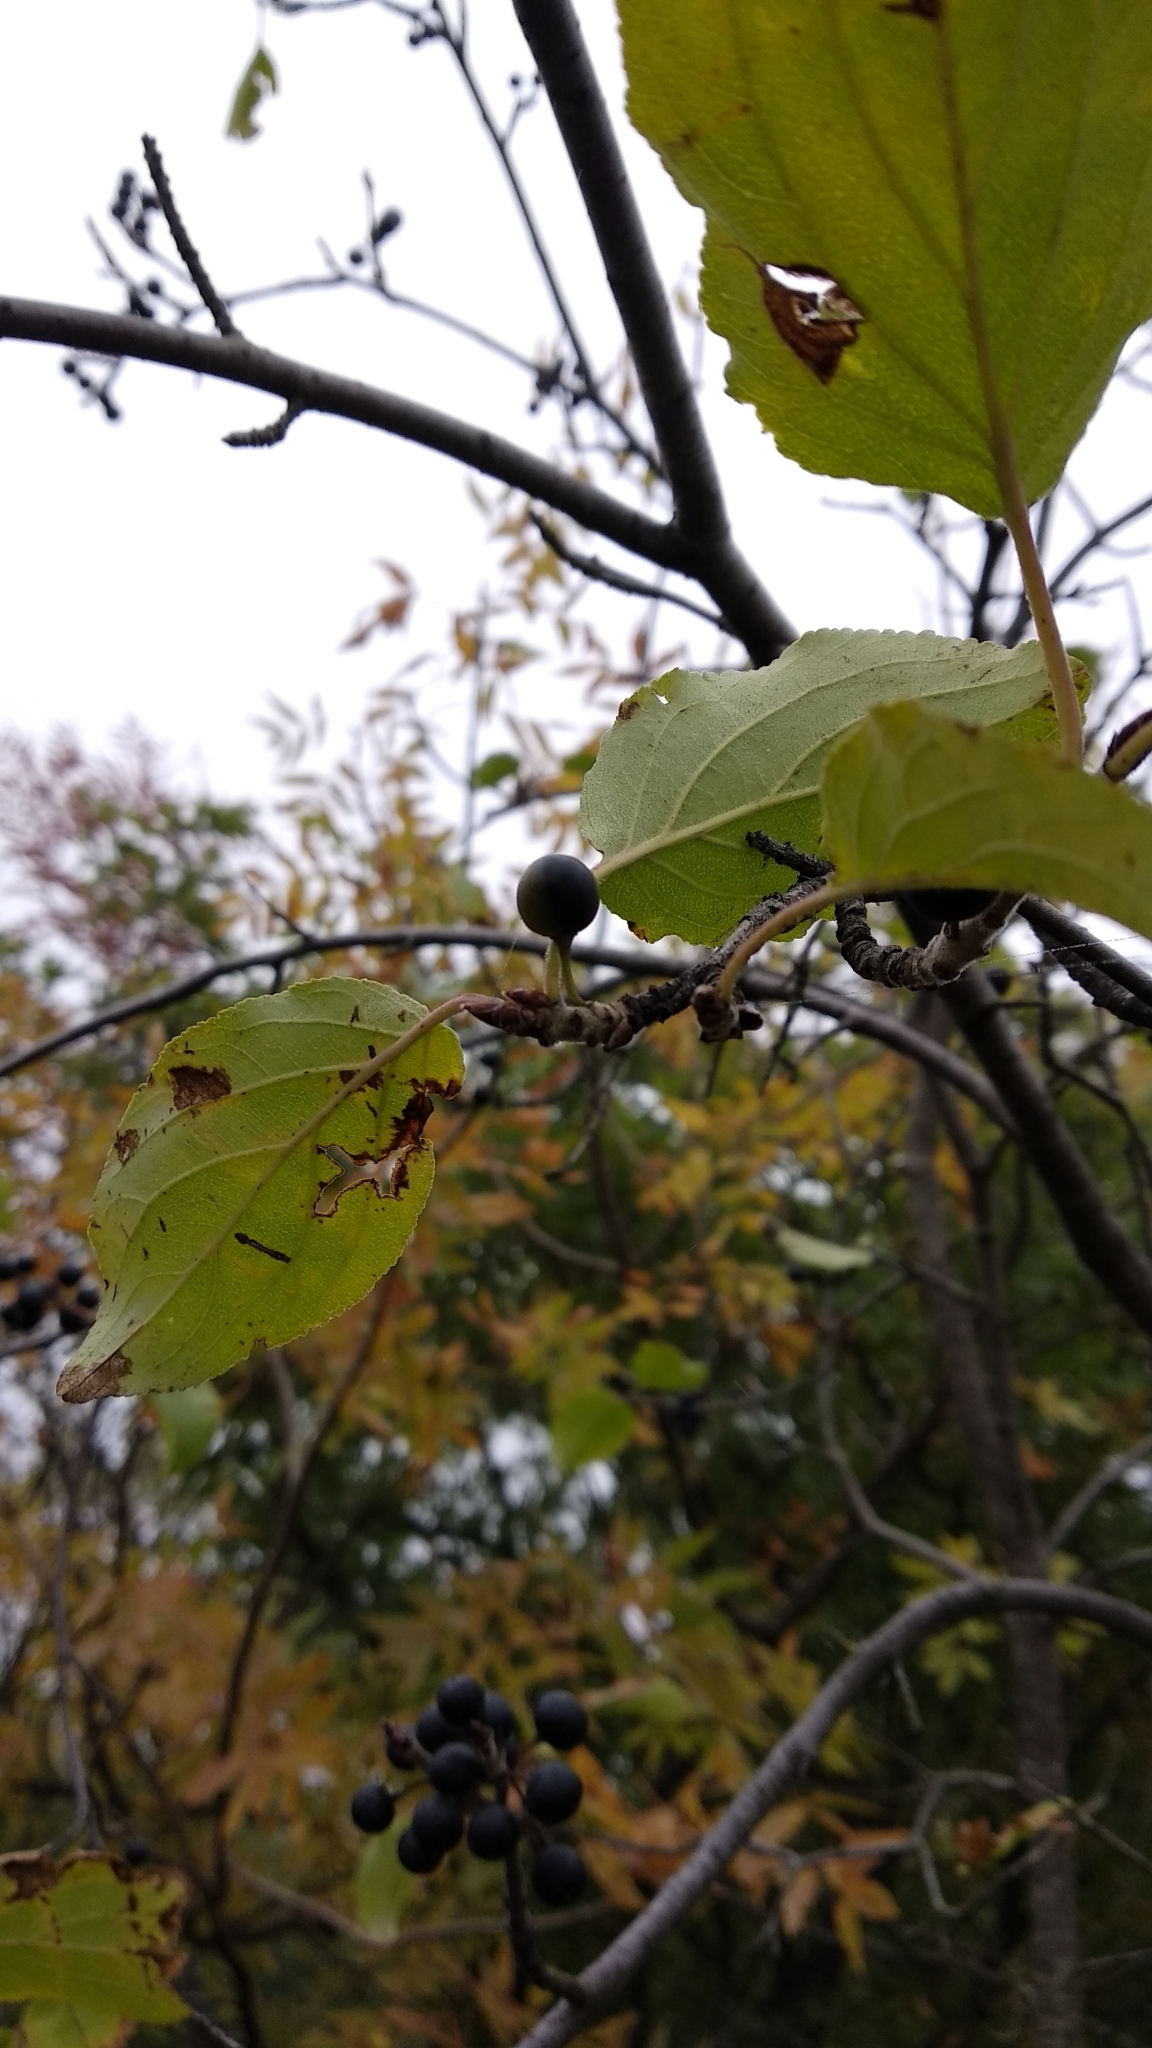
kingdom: Plantae
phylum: Tracheophyta
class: Magnoliopsida
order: Rosales
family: Rhamnaceae
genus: Rhamnus
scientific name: Rhamnus cathartica
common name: Common buckthorn
